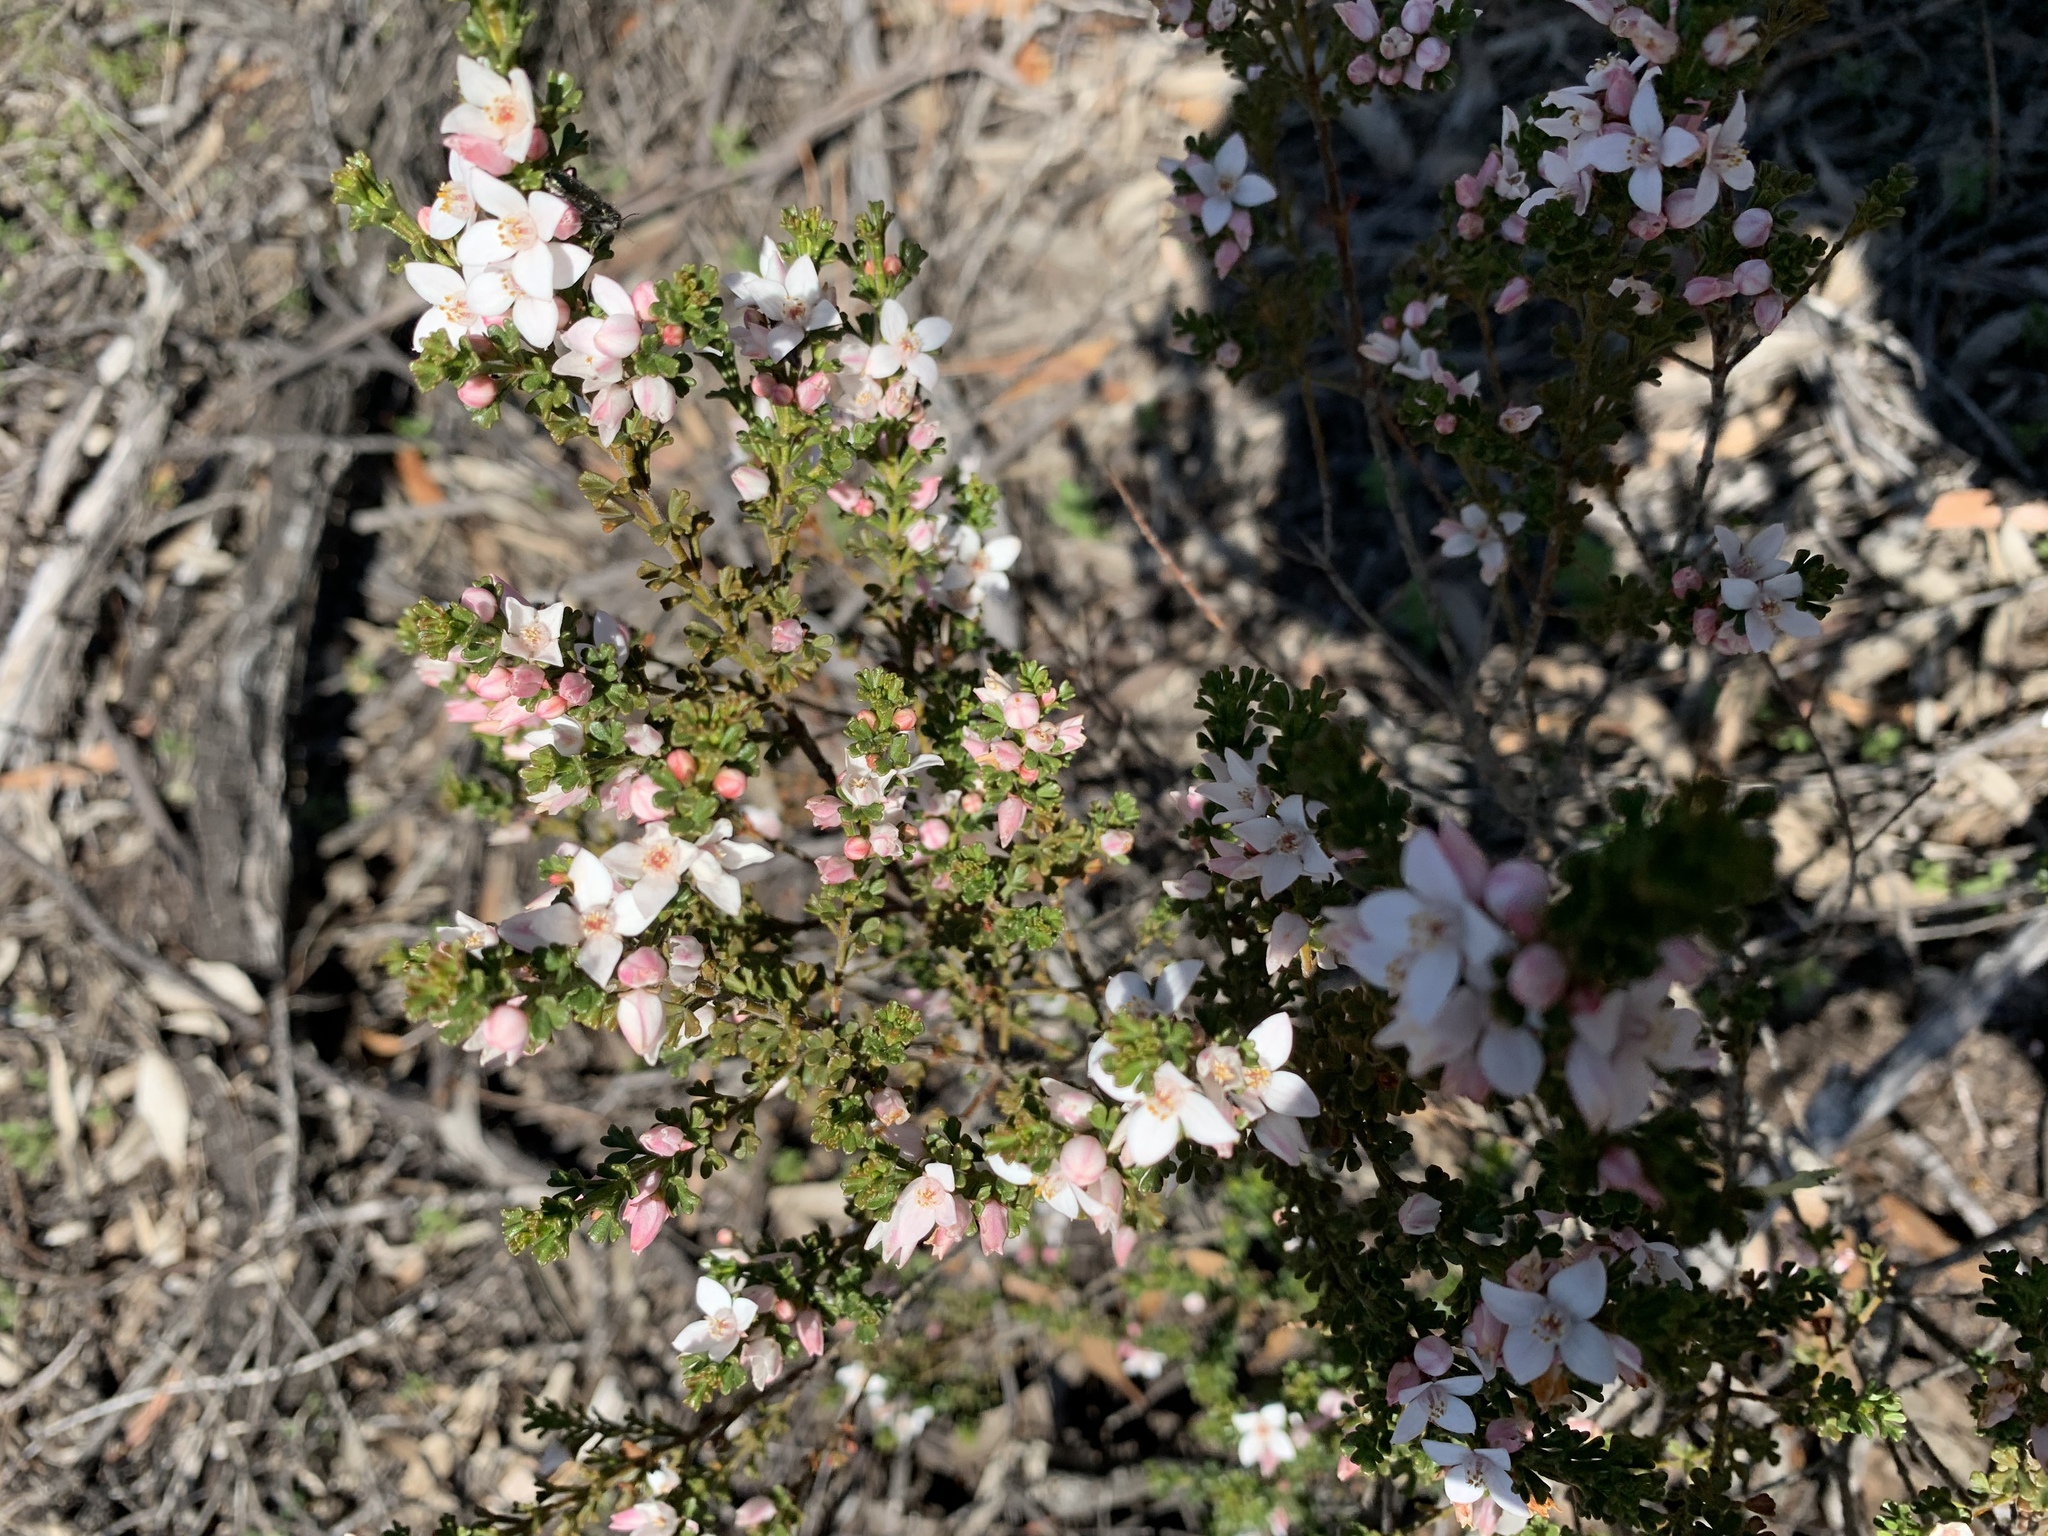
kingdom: Plantae
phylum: Tracheophyta
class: Magnoliopsida
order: Sapindales
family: Rutaceae
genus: Cyanothamnus
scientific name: Cyanothamnus anemonifolius
